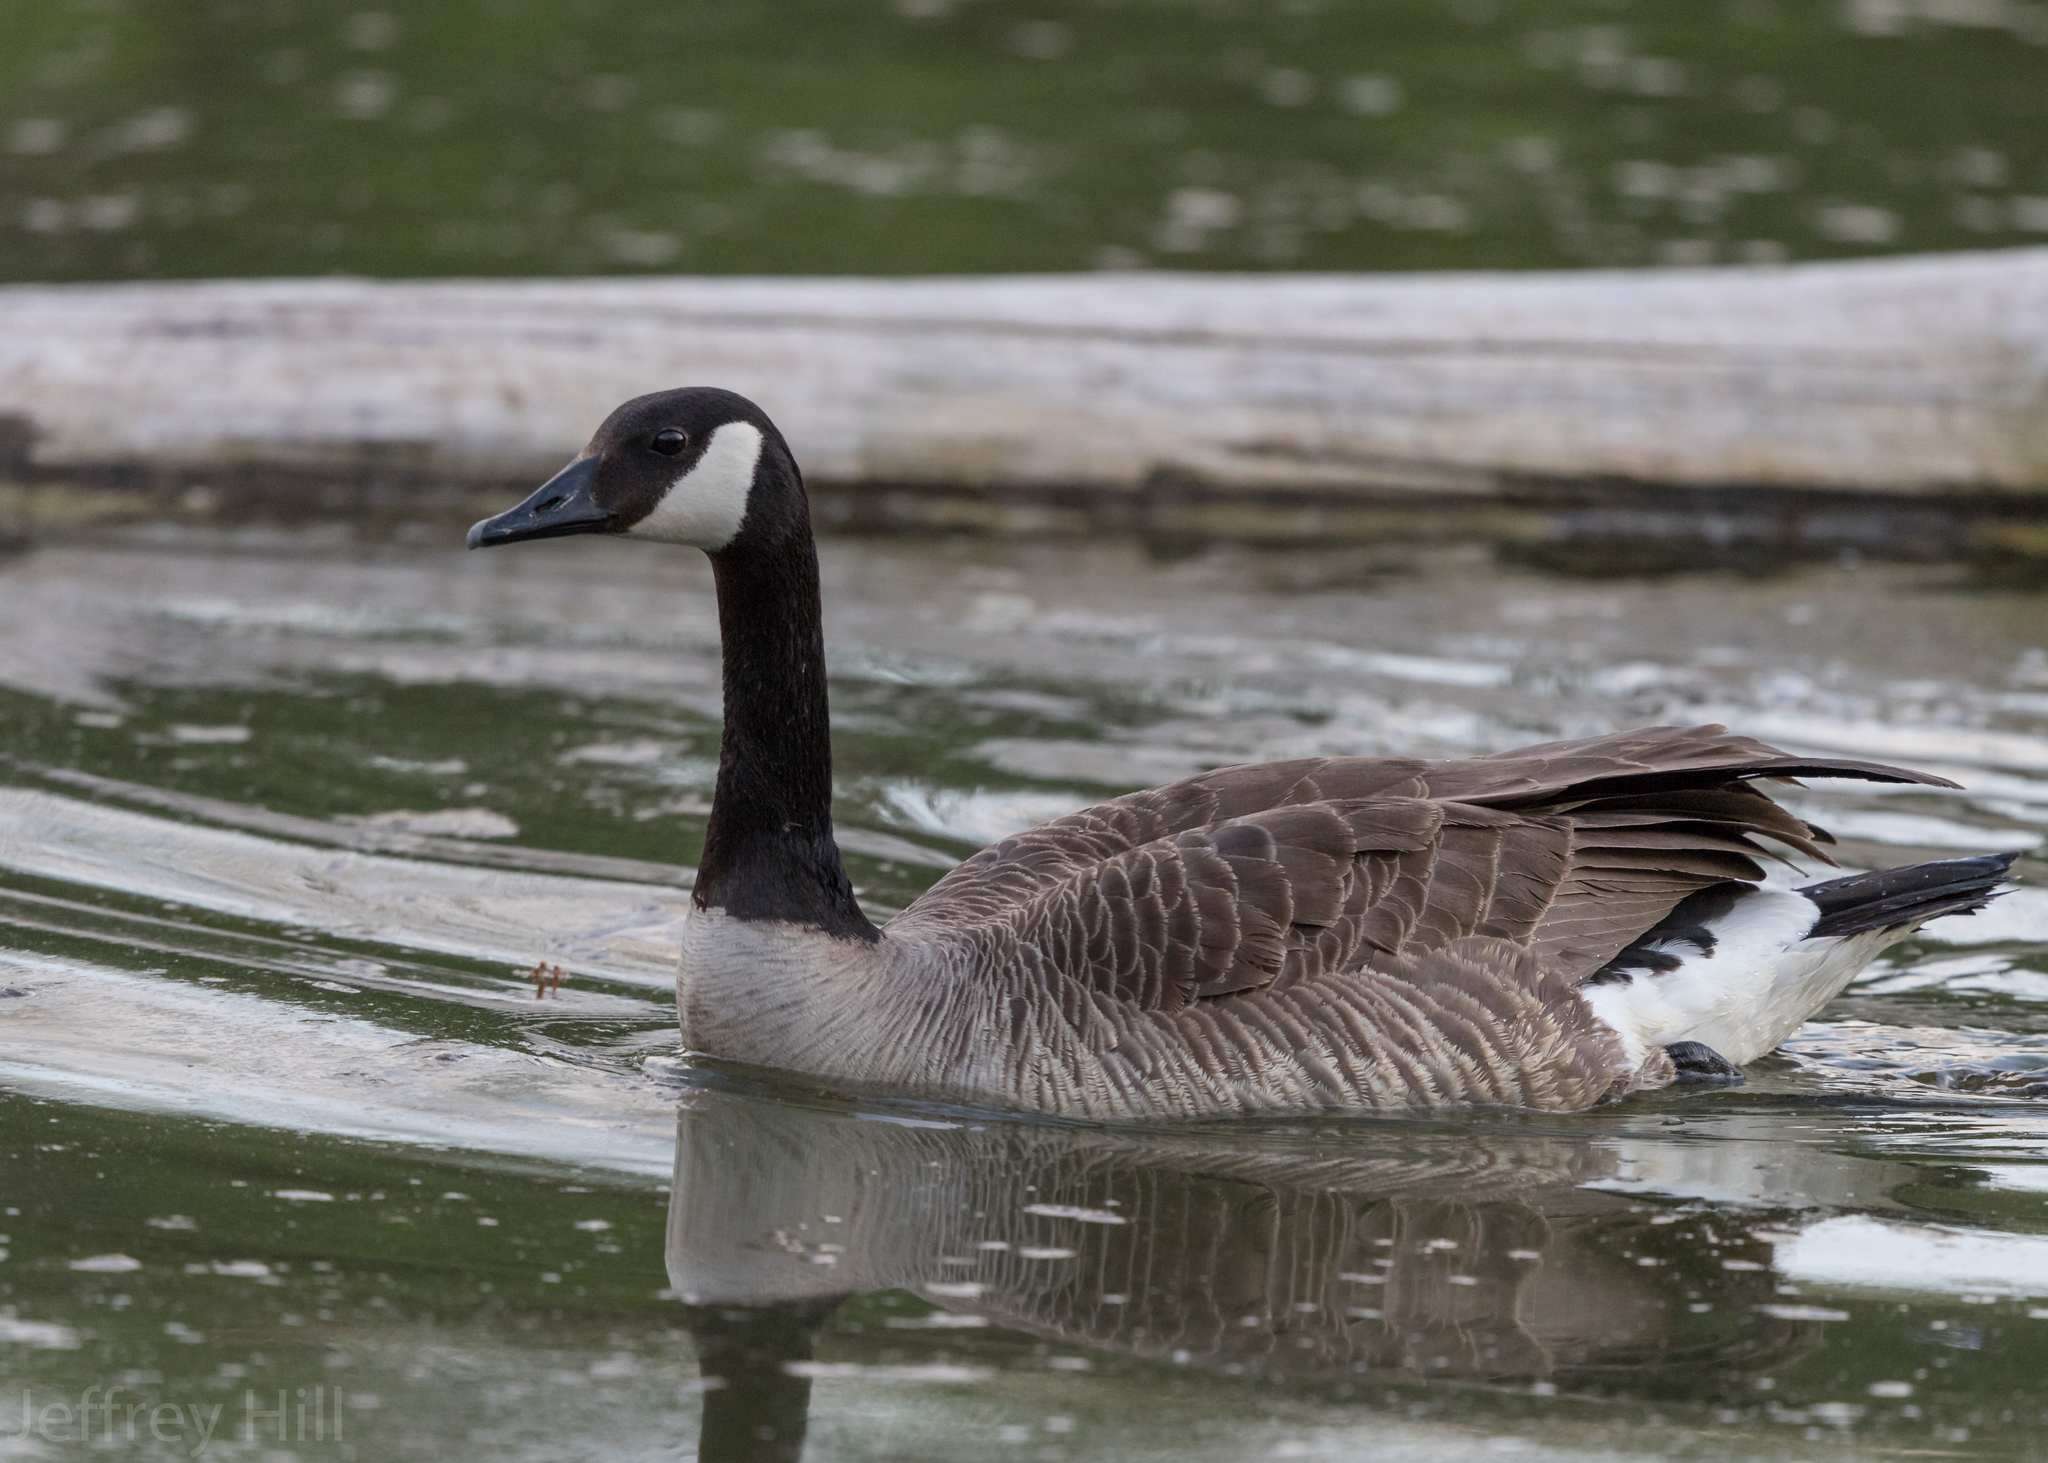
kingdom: Animalia
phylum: Chordata
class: Aves
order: Anseriformes
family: Anatidae
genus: Branta
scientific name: Branta canadensis
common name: Canada goose
